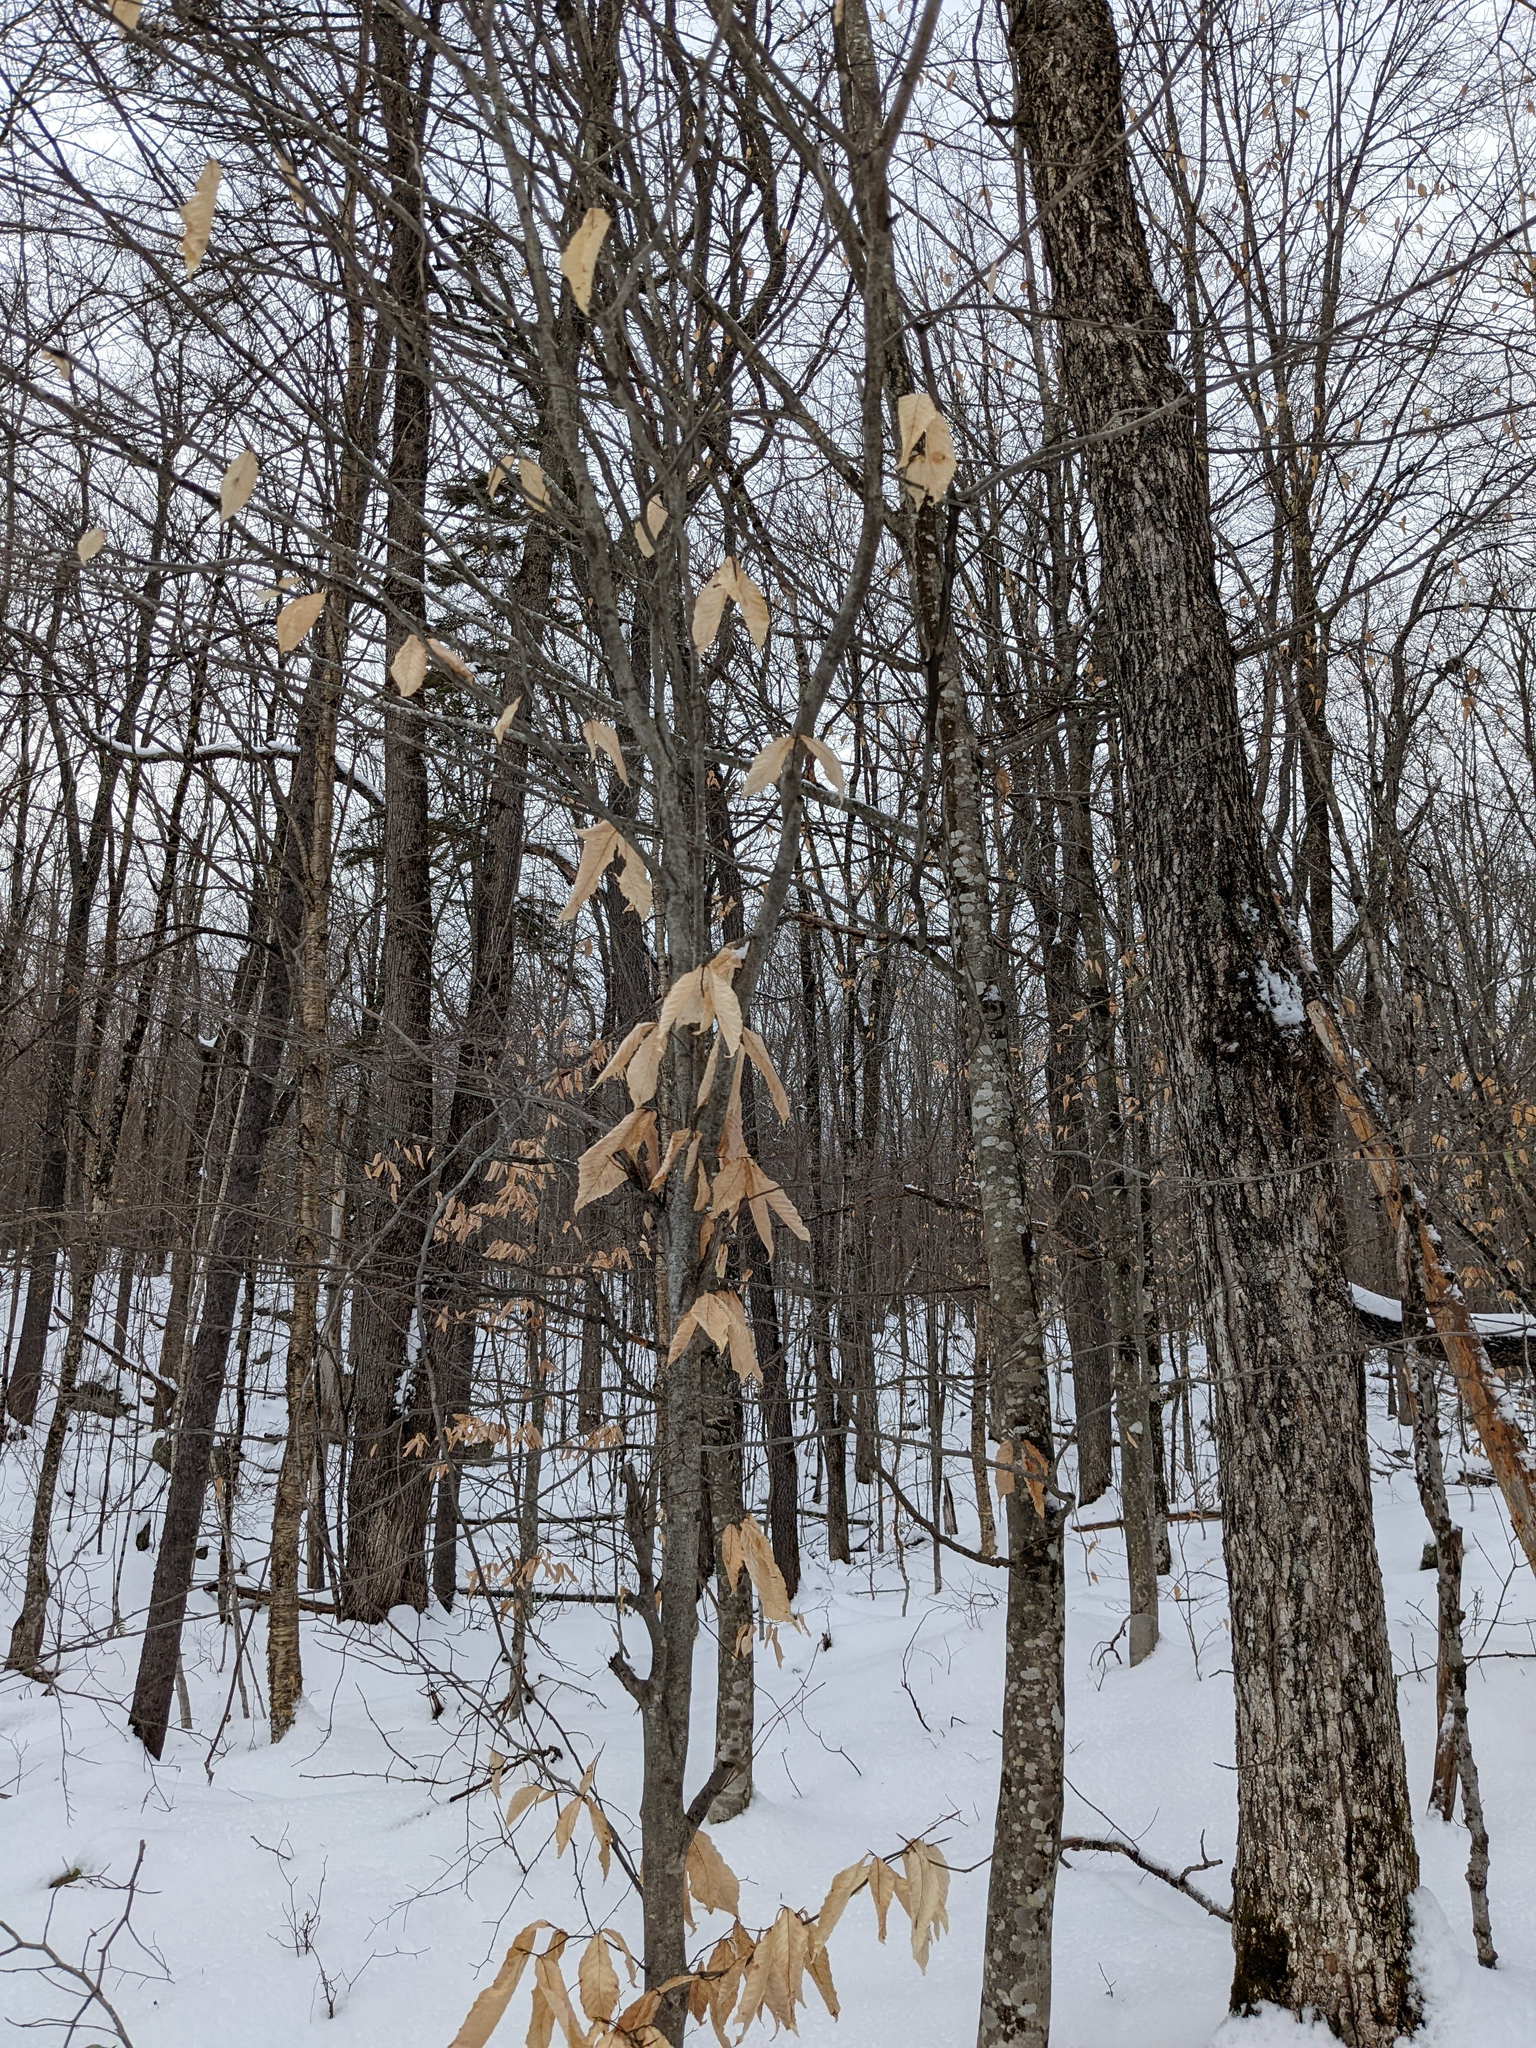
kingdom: Plantae
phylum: Tracheophyta
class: Magnoliopsida
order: Fagales
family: Fagaceae
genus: Fagus
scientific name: Fagus grandifolia
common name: American beech
